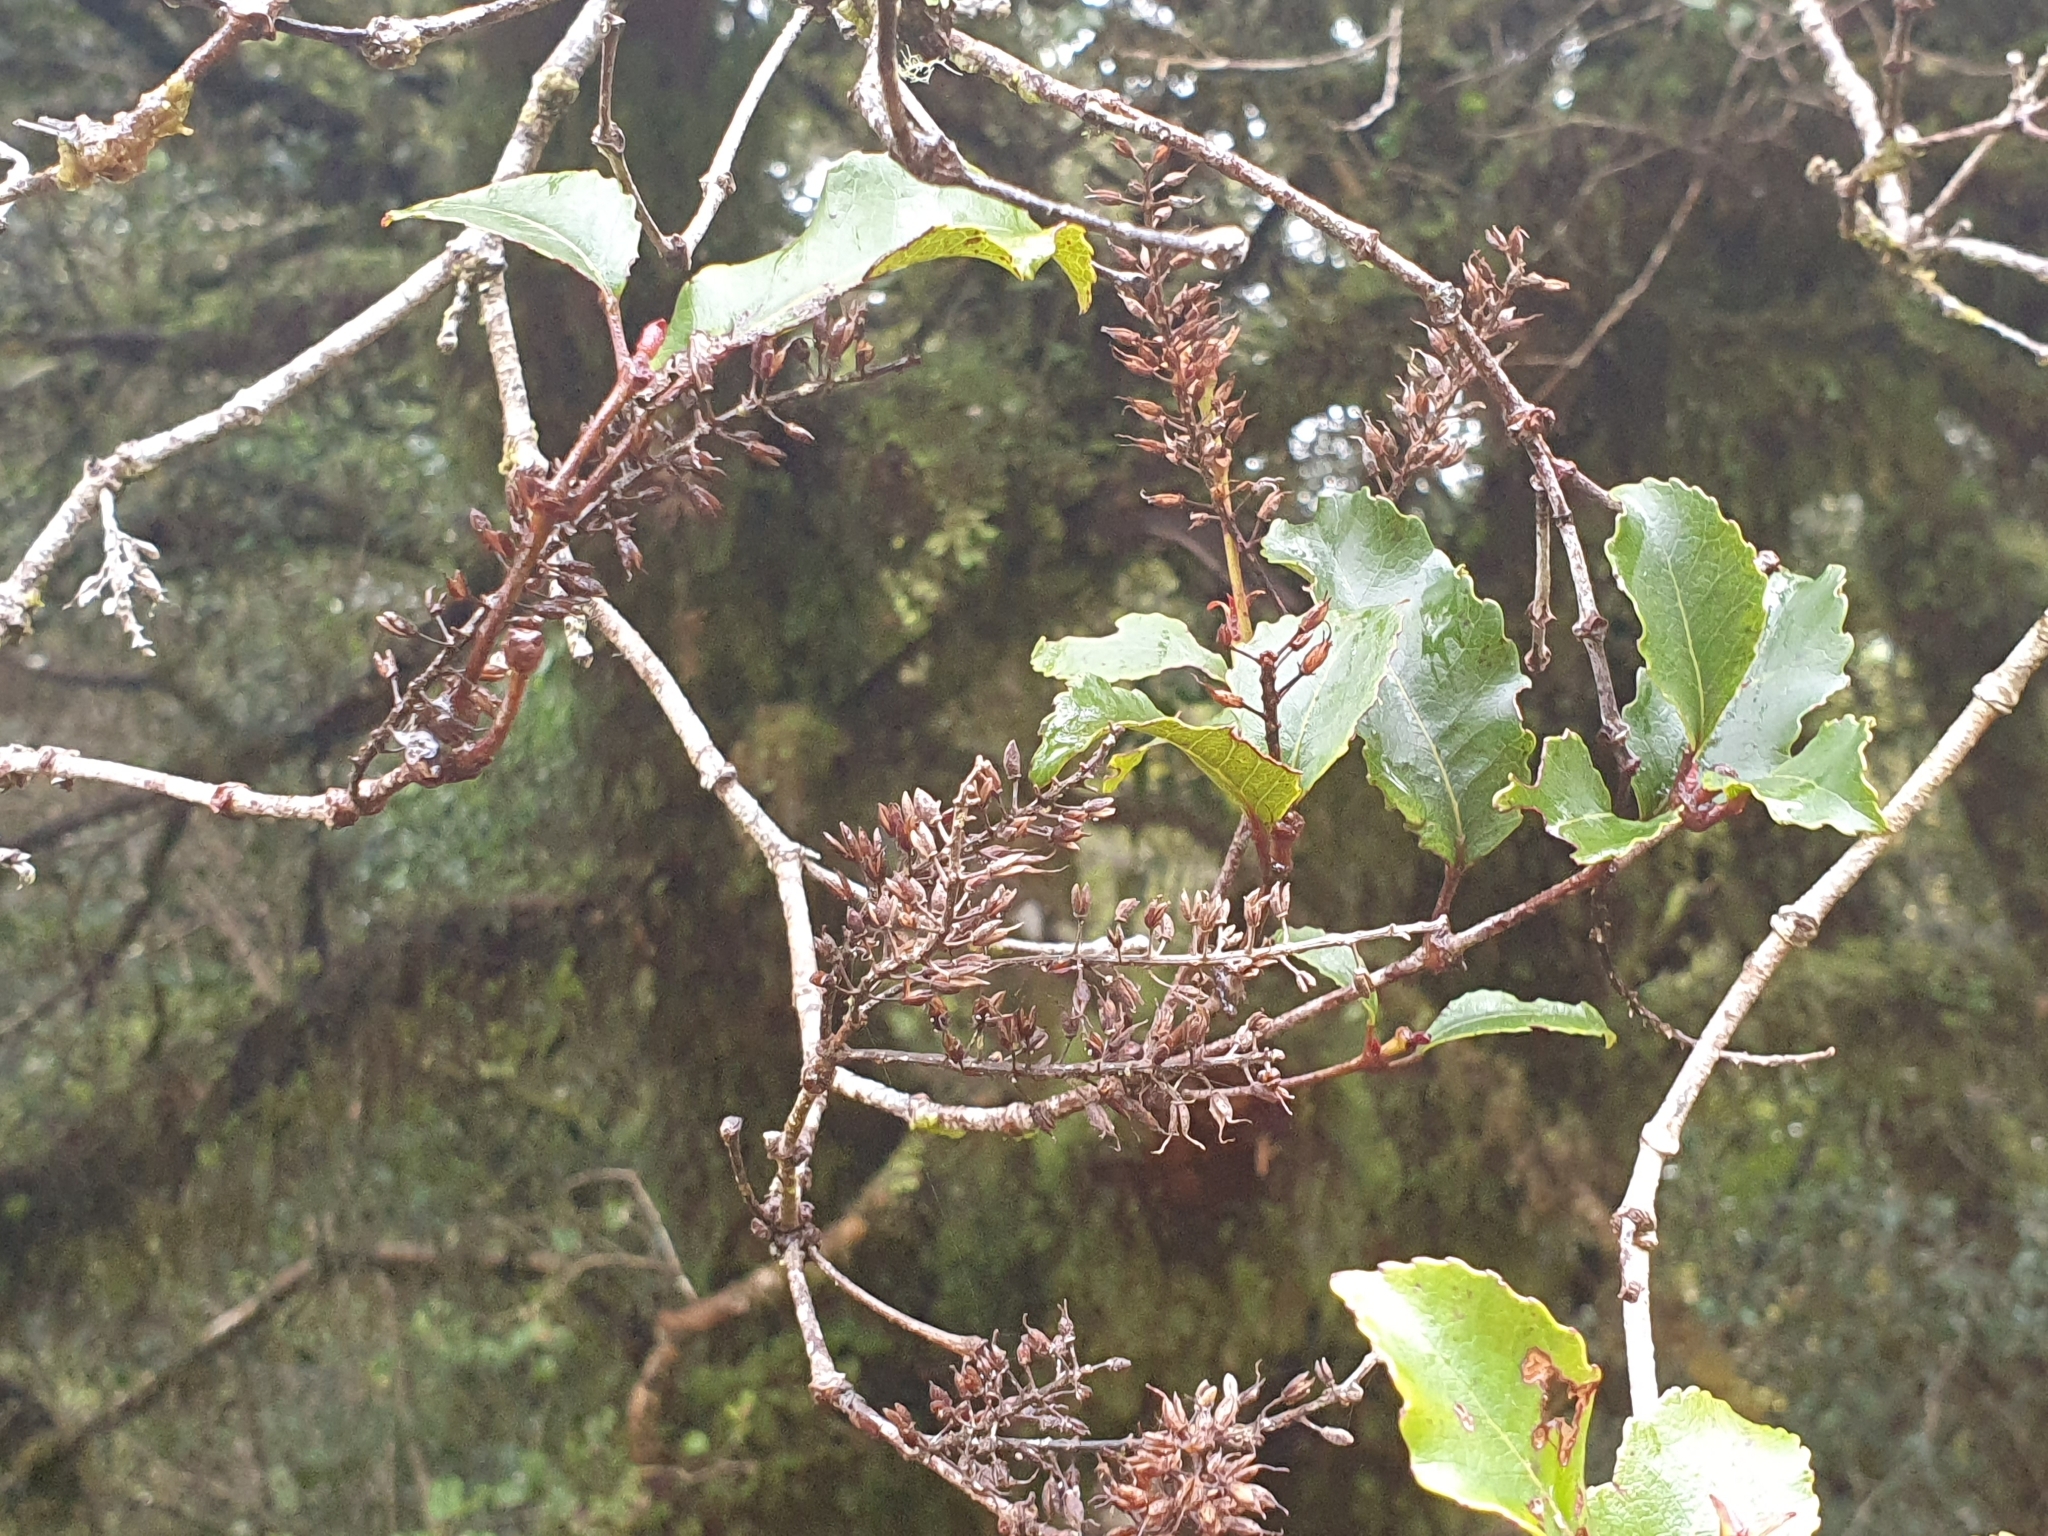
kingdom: Plantae
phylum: Tracheophyta
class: Magnoliopsida
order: Oxalidales
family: Cunoniaceae
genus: Pterophylla
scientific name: Pterophylla racemosa
